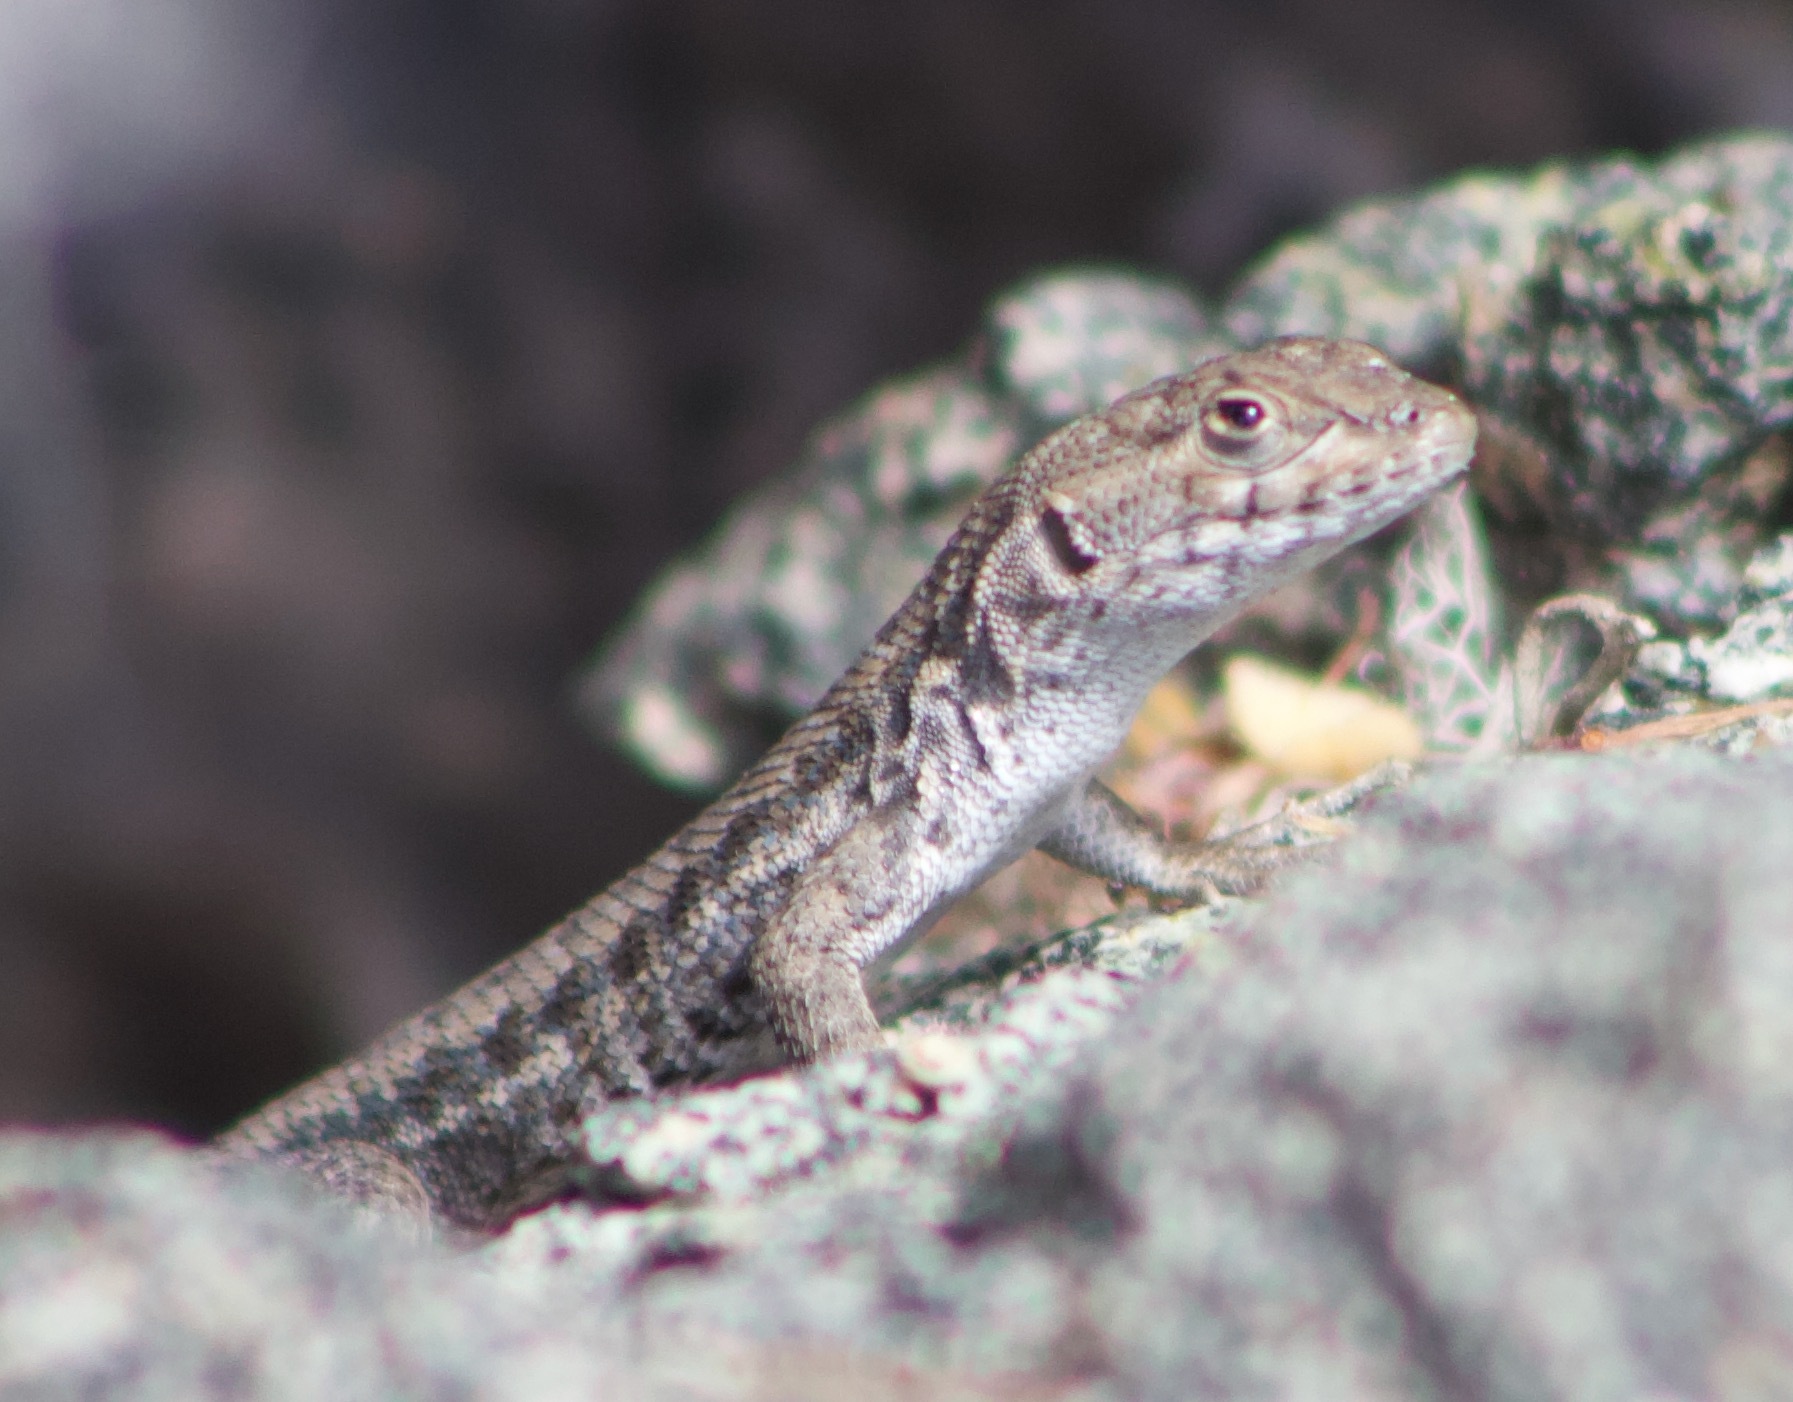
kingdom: Animalia
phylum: Chordata
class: Squamata
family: Liolaemidae
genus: Liolaemus
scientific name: Liolaemus platei
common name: Braided tree iguana
